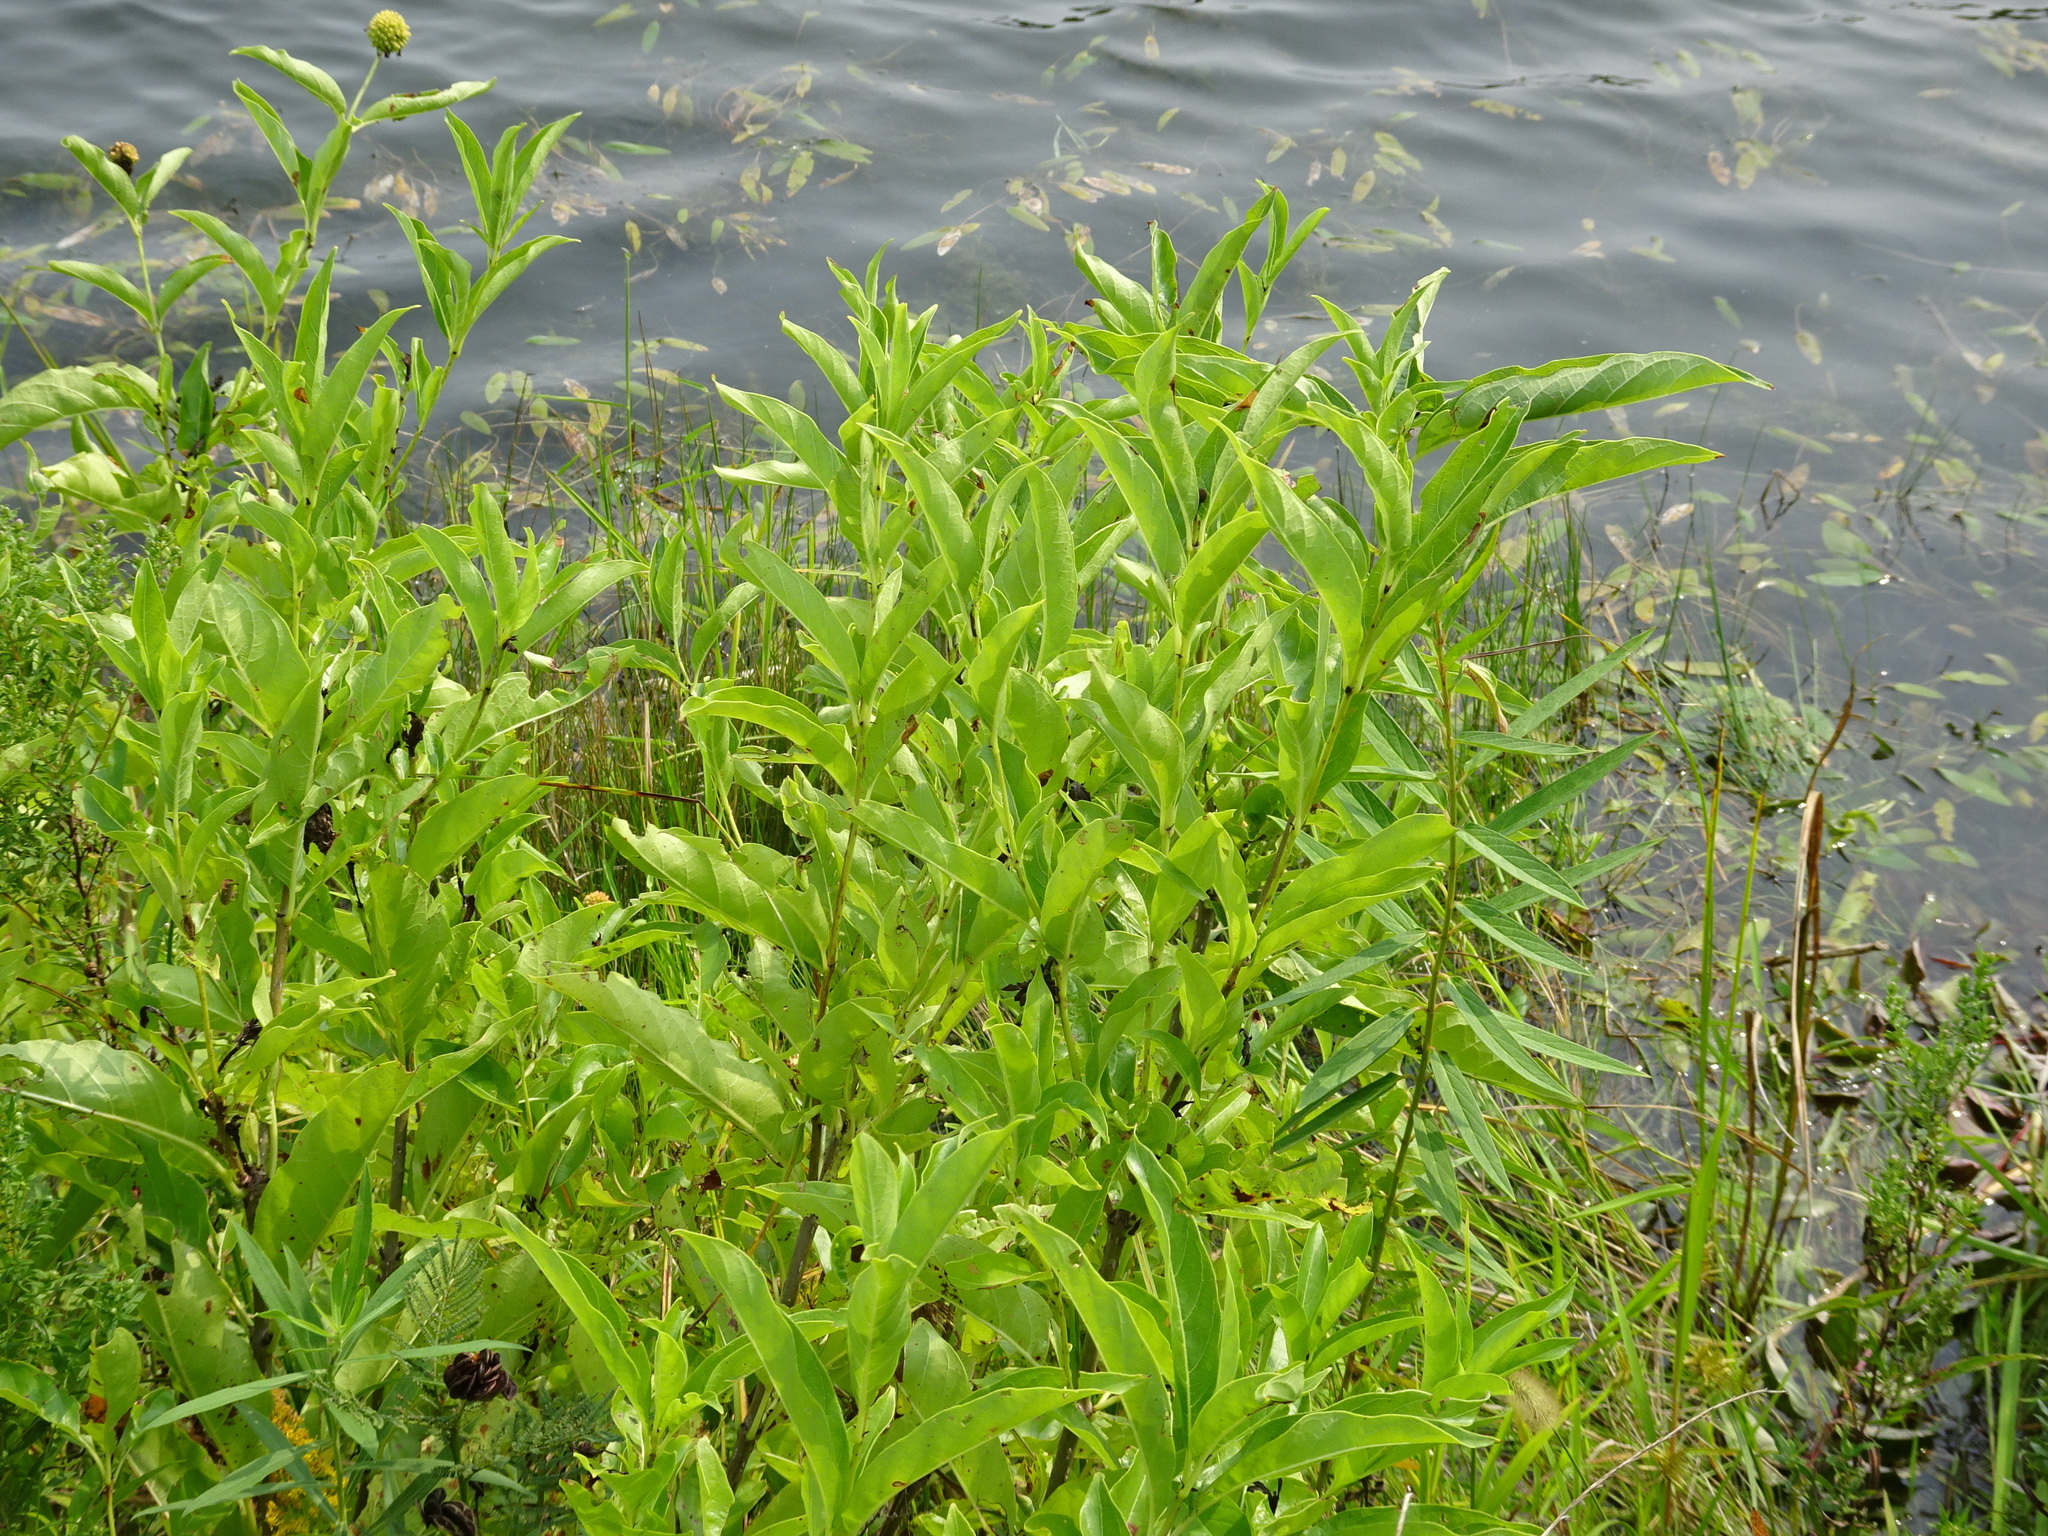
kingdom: Plantae
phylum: Tracheophyta
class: Magnoliopsida
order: Gentianales
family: Rubiaceae
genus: Cephalanthus
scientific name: Cephalanthus occidentalis
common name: Button-willow
